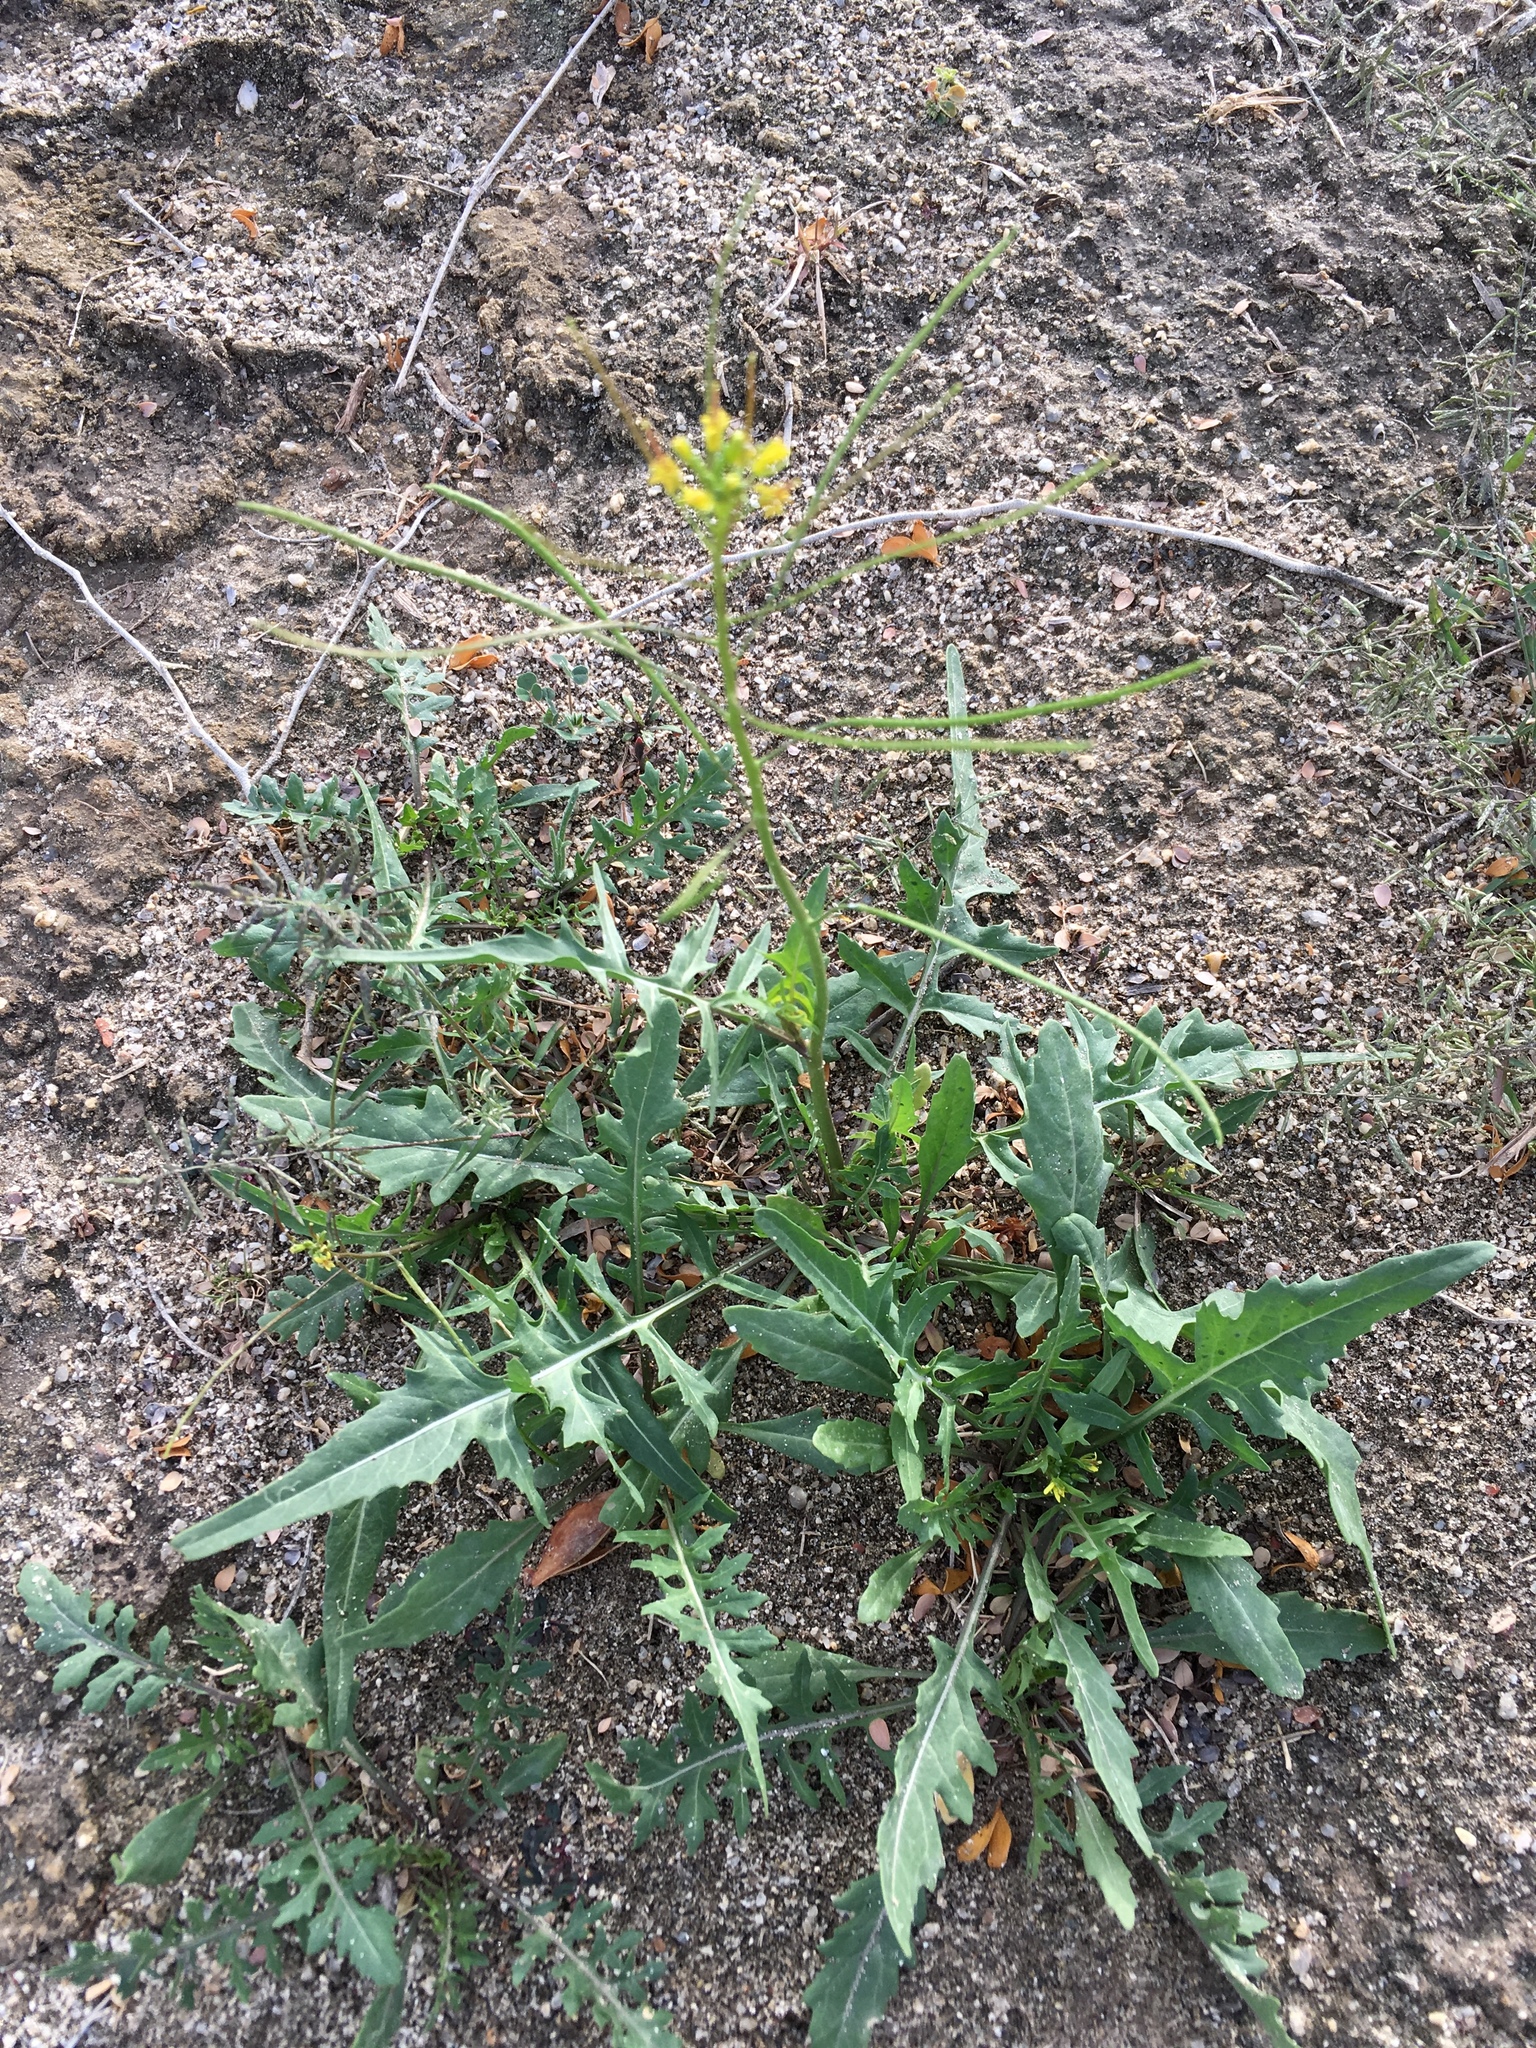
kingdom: Plantae
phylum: Tracheophyta
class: Magnoliopsida
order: Brassicales
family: Brassicaceae
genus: Sisymbrium
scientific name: Sisymbrium irio
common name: London rocket
